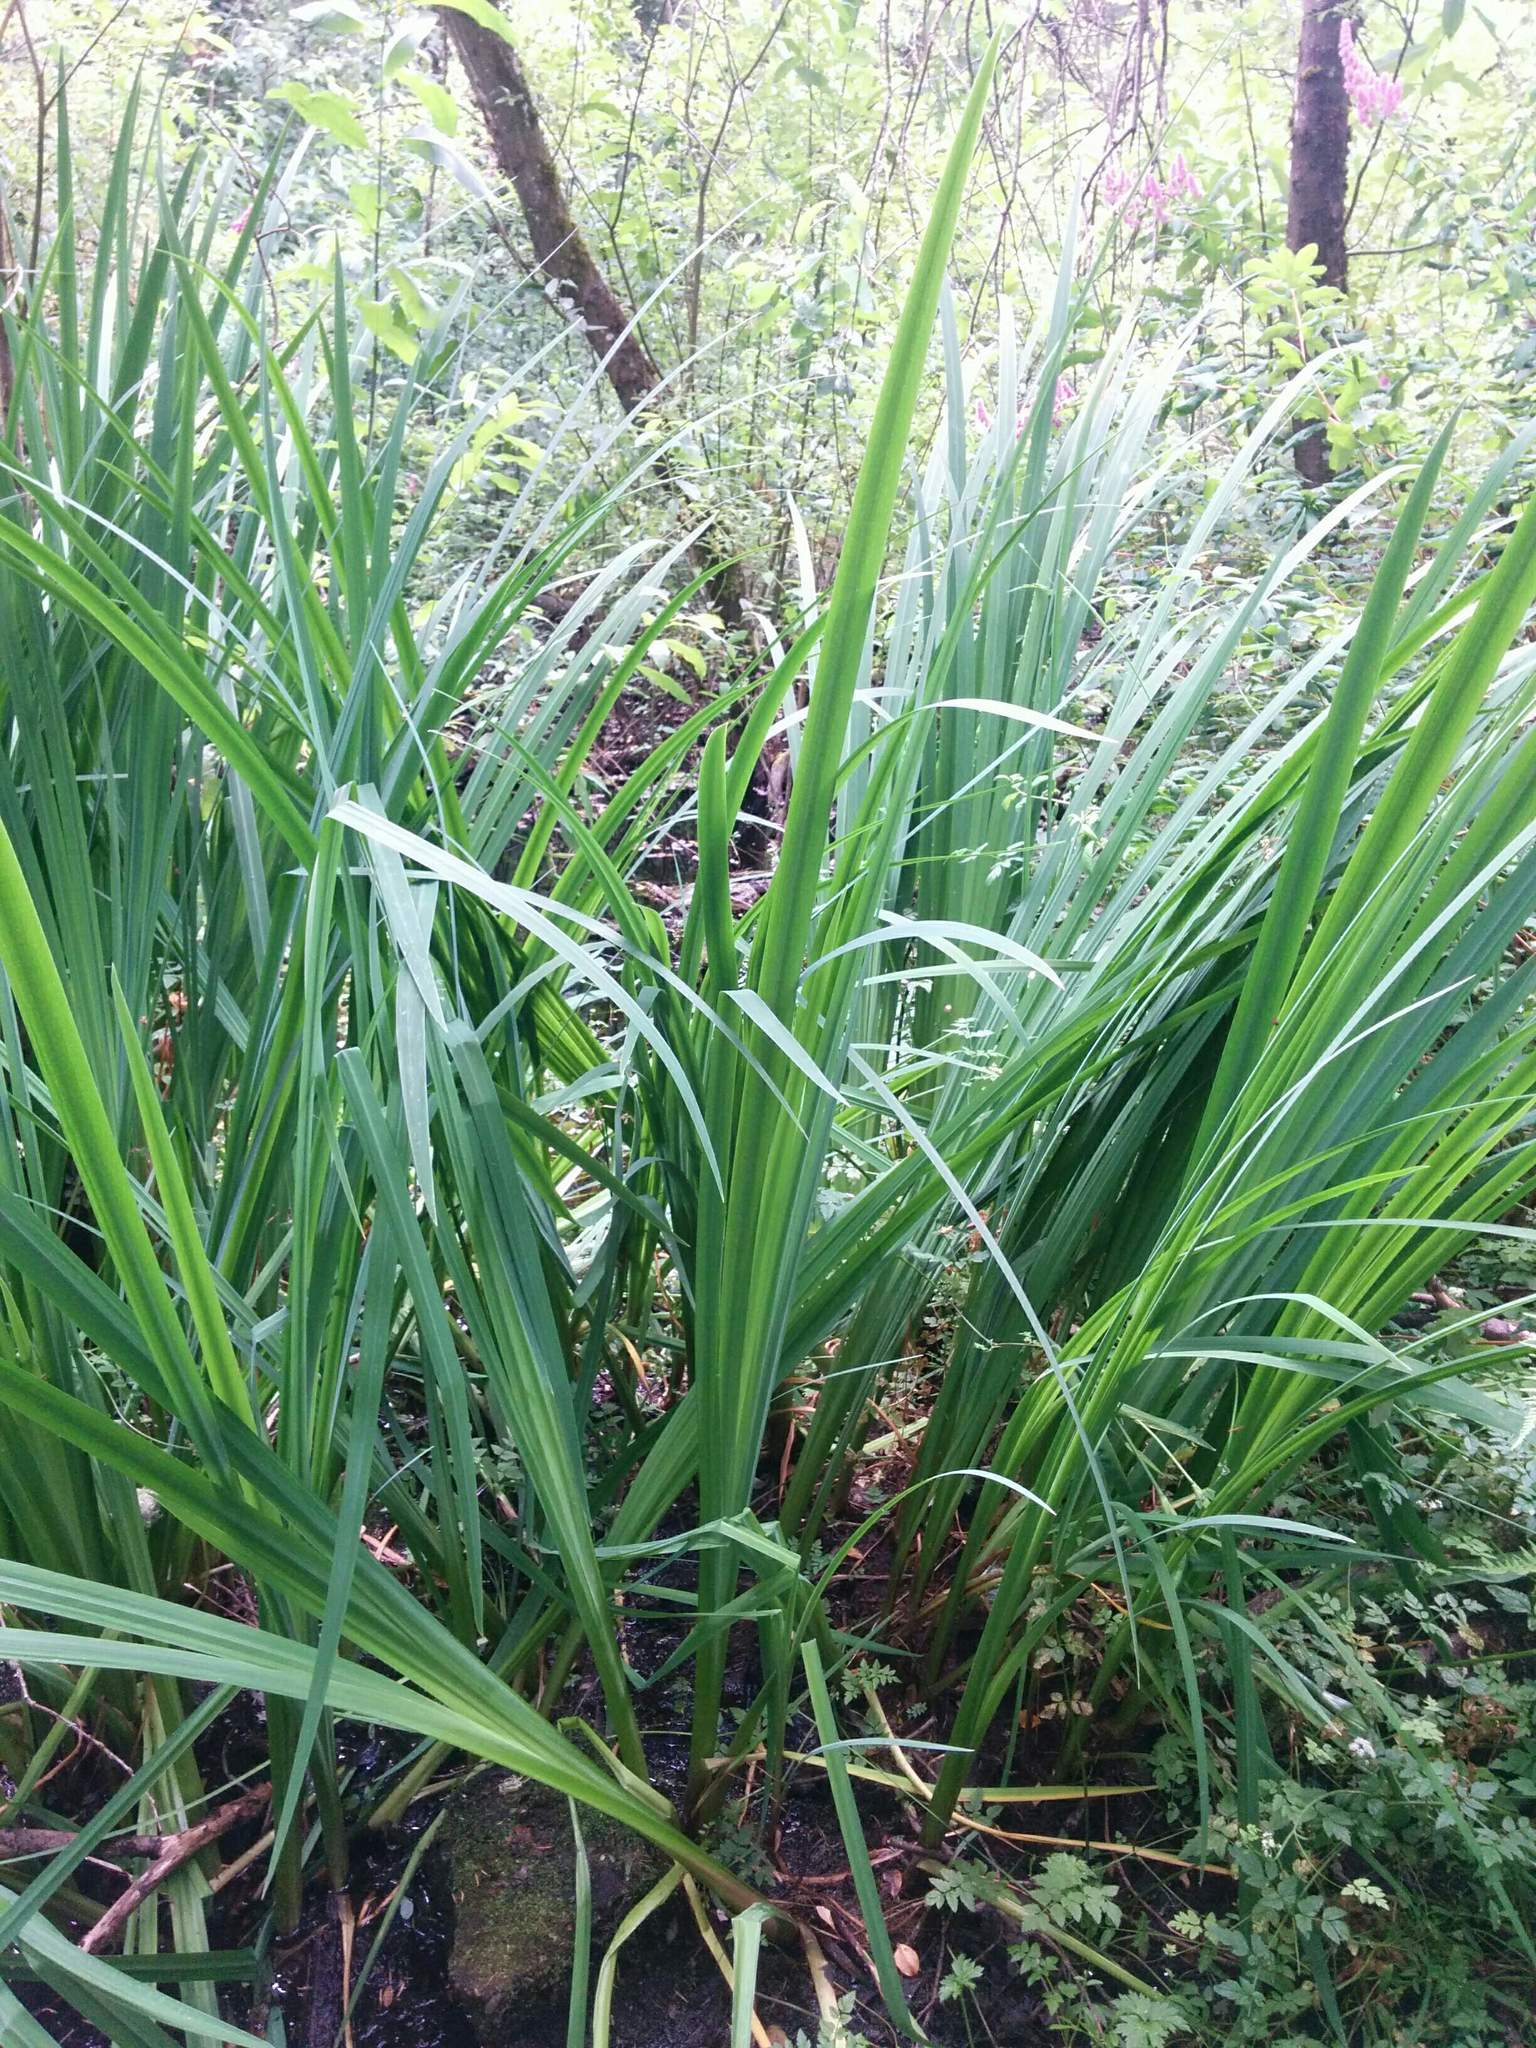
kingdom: Plantae
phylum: Tracheophyta
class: Liliopsida
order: Asparagales
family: Iridaceae
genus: Iris
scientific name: Iris pseudacorus
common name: Yellow flag
